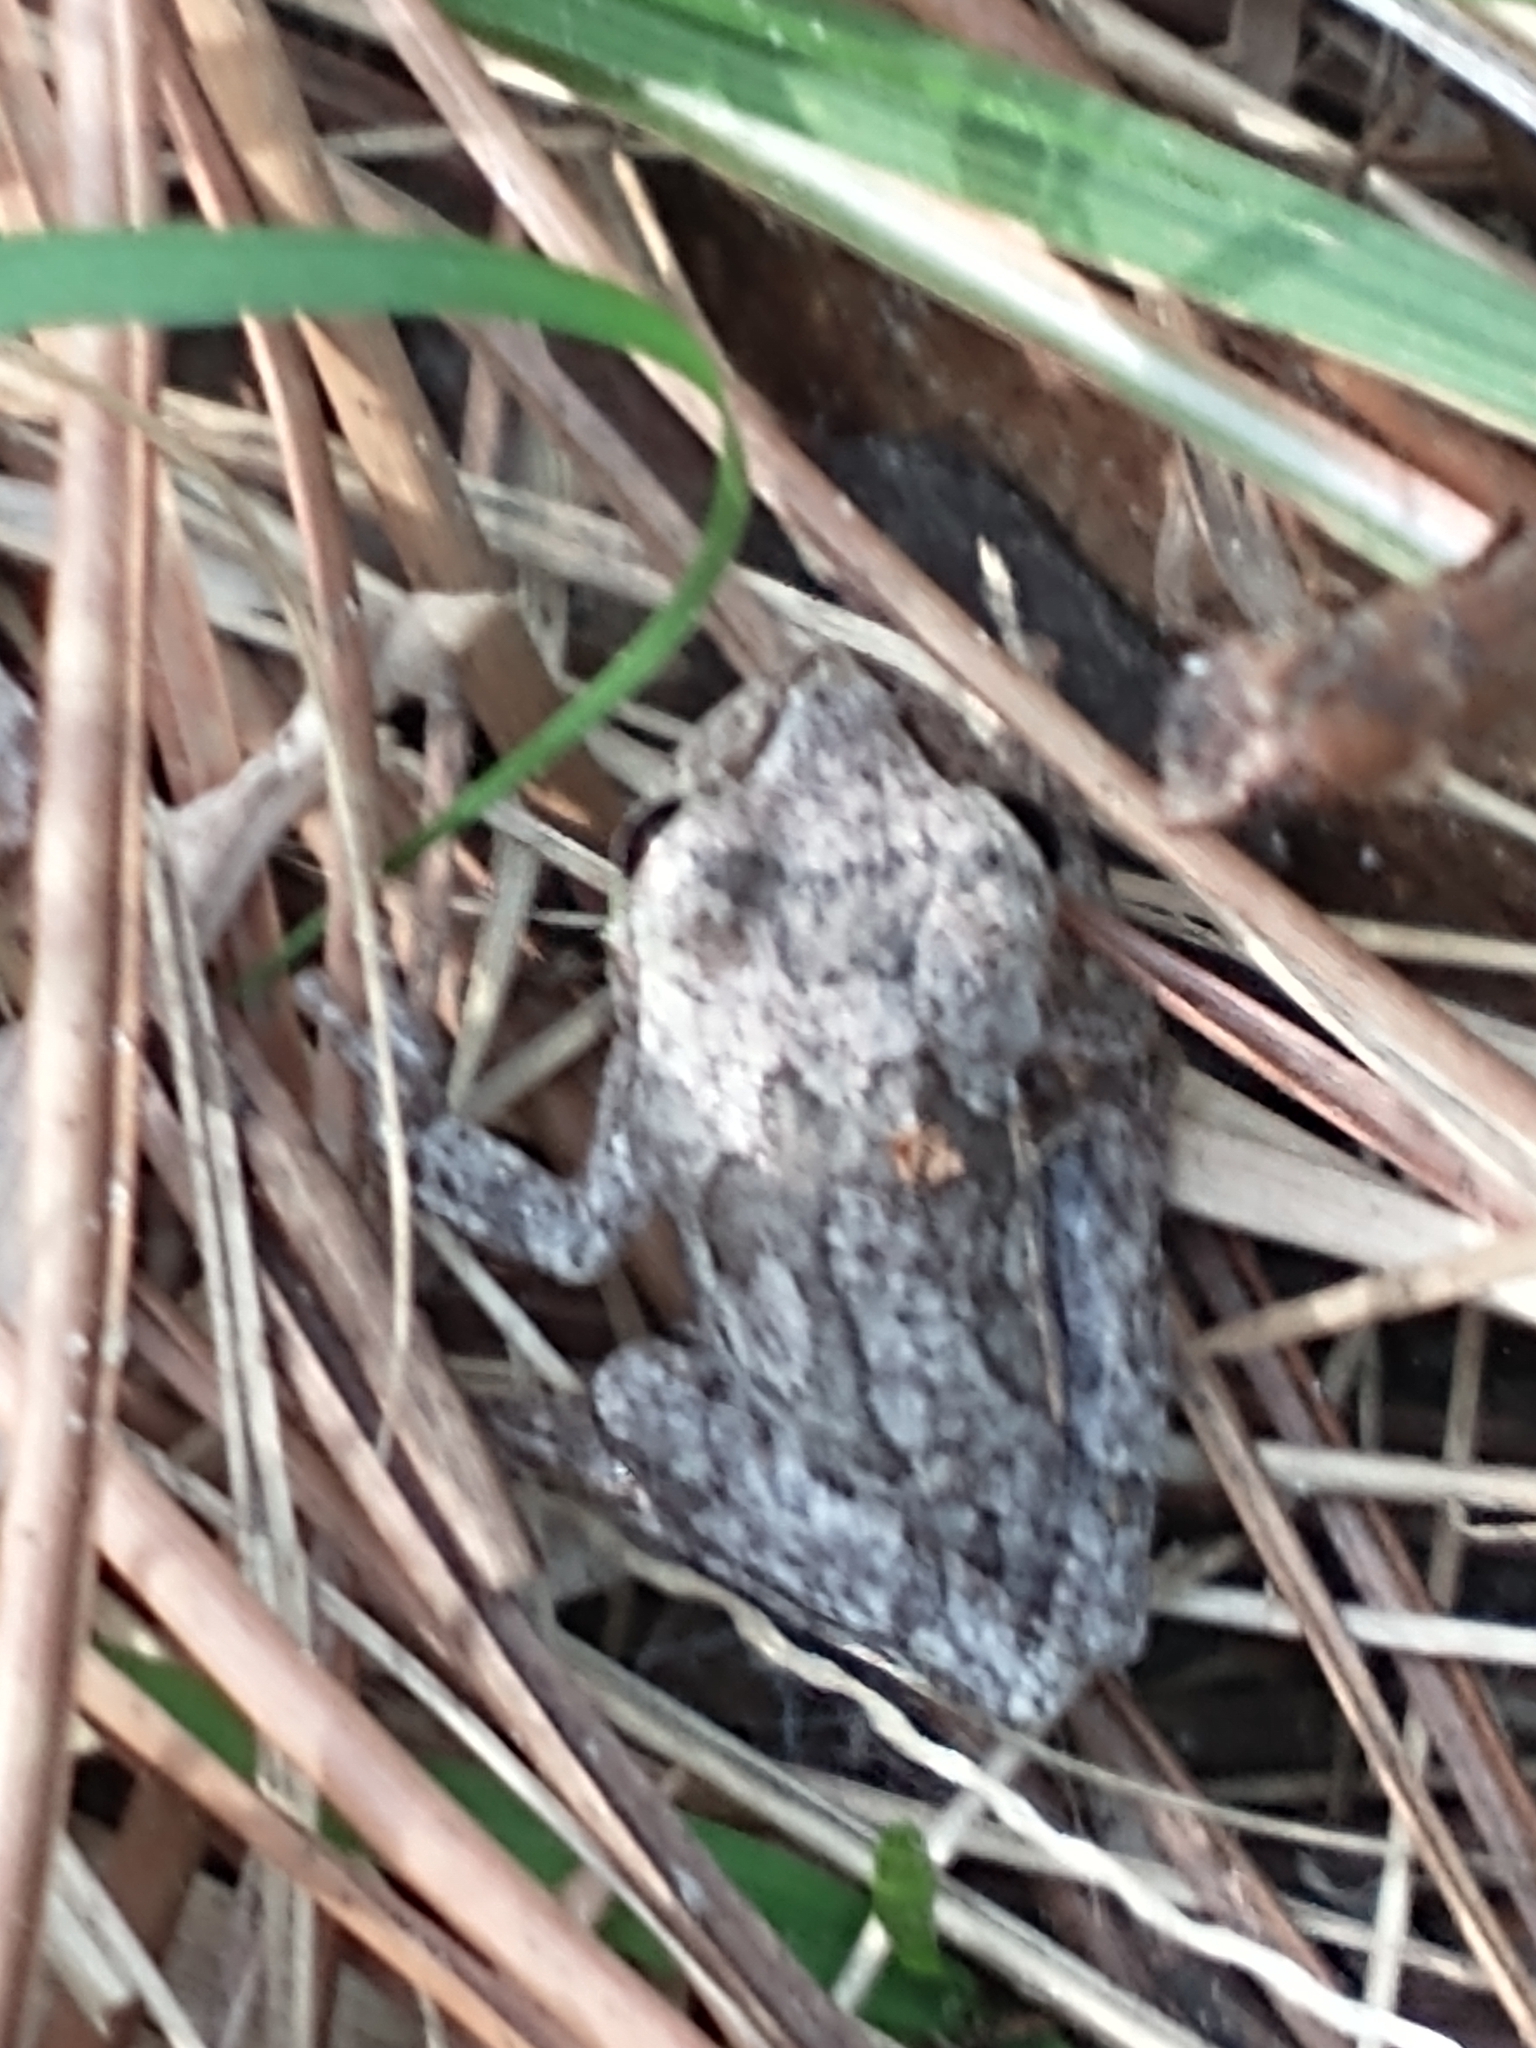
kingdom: Animalia
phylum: Chordata
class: Amphibia
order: Anura
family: Hylidae
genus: Hyla
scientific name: Hyla femoralis
